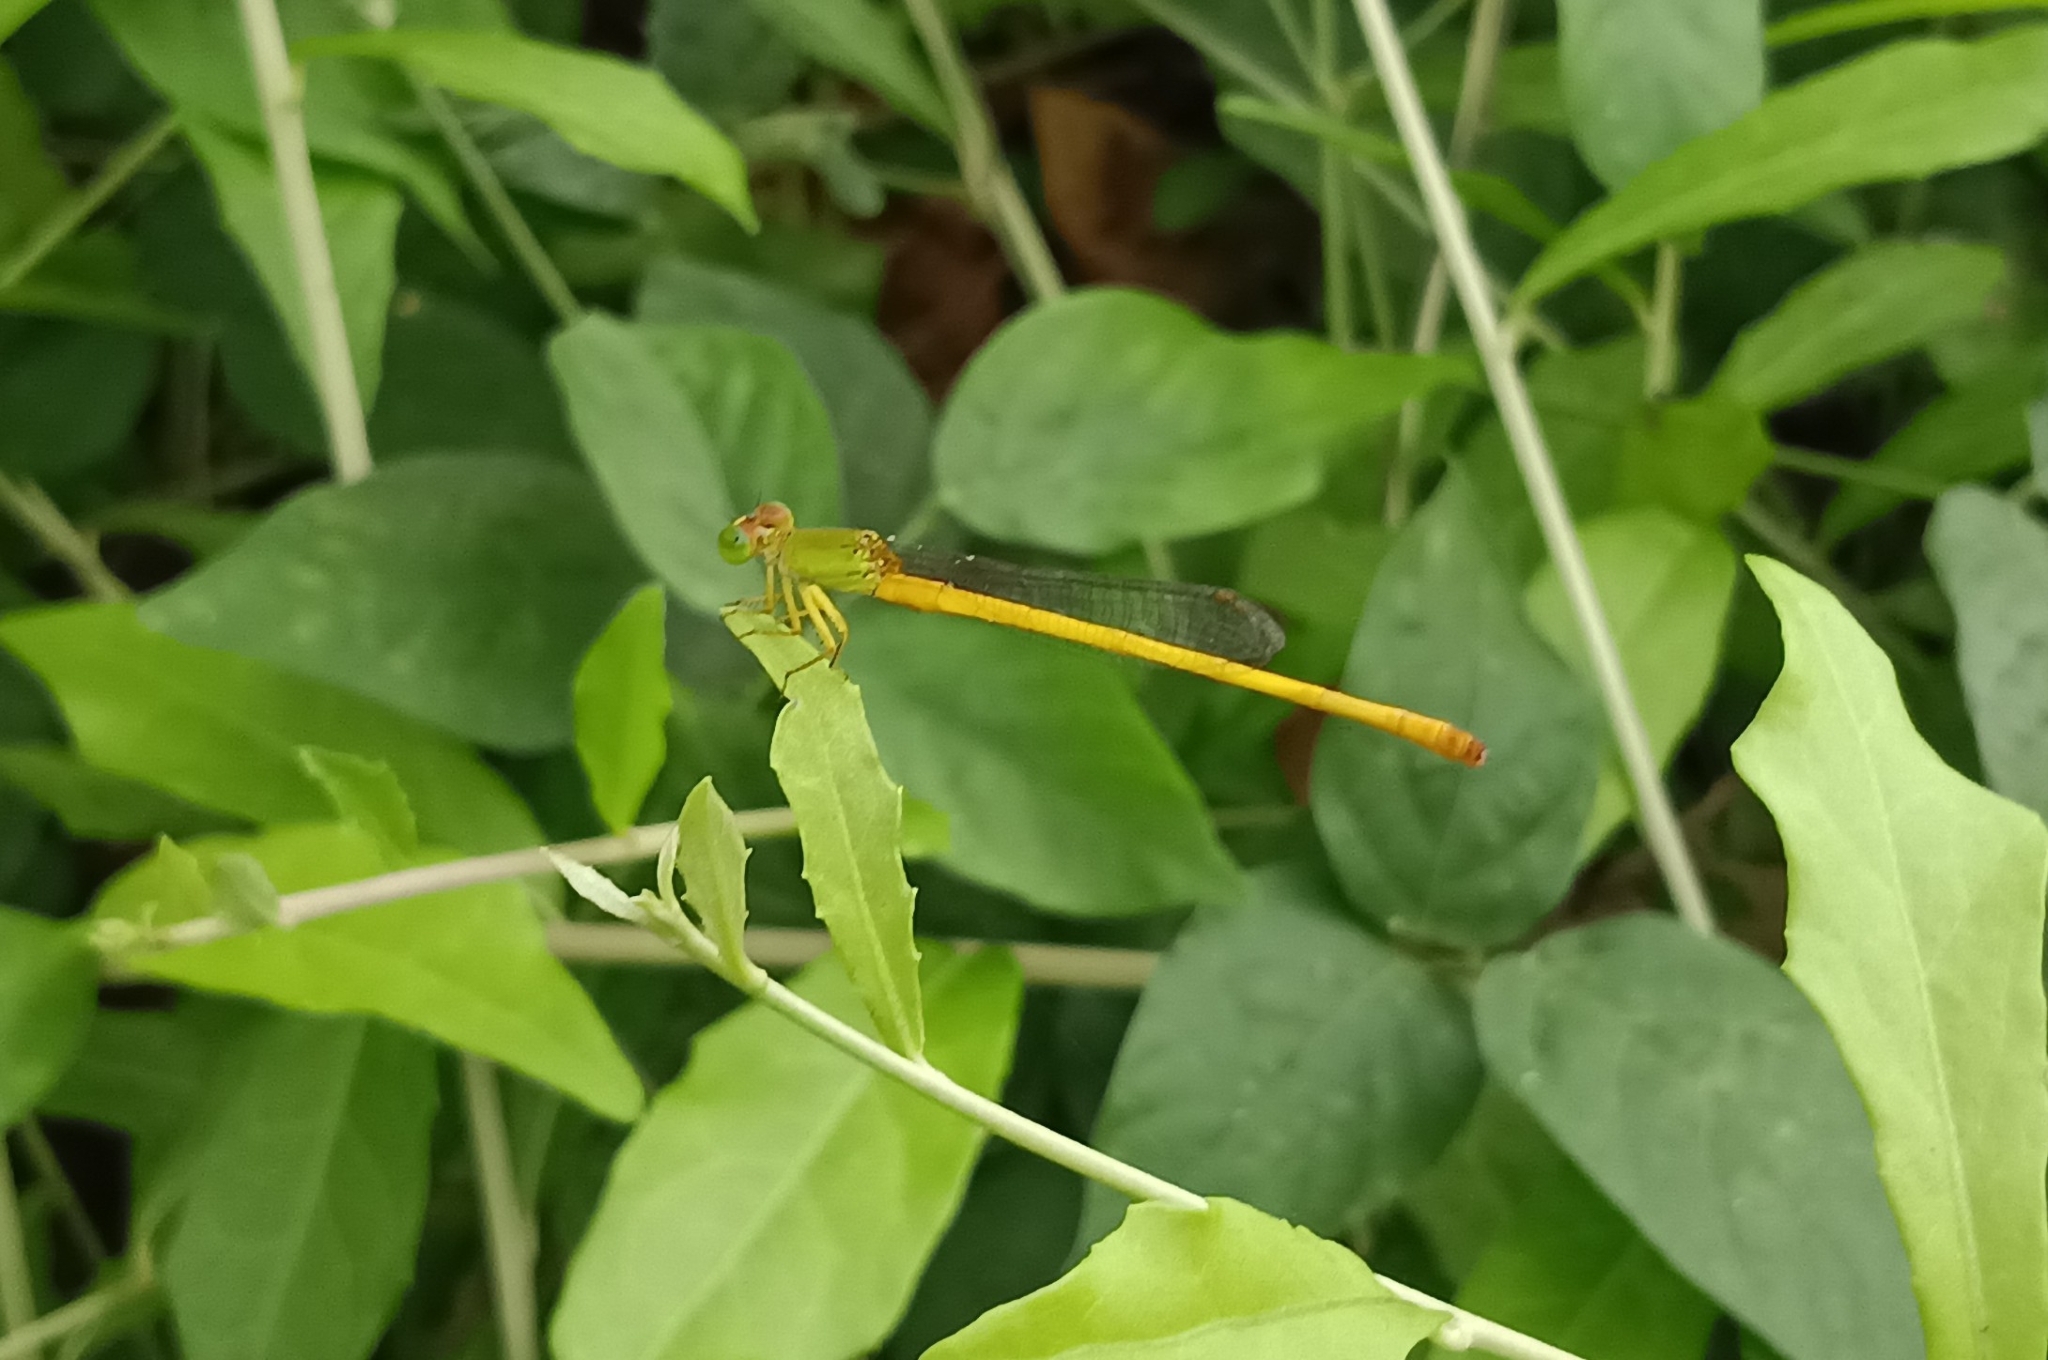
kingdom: Animalia
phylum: Arthropoda
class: Insecta
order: Odonata
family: Coenagrionidae
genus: Ceriagrion
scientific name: Ceriagrion coromandelianum
